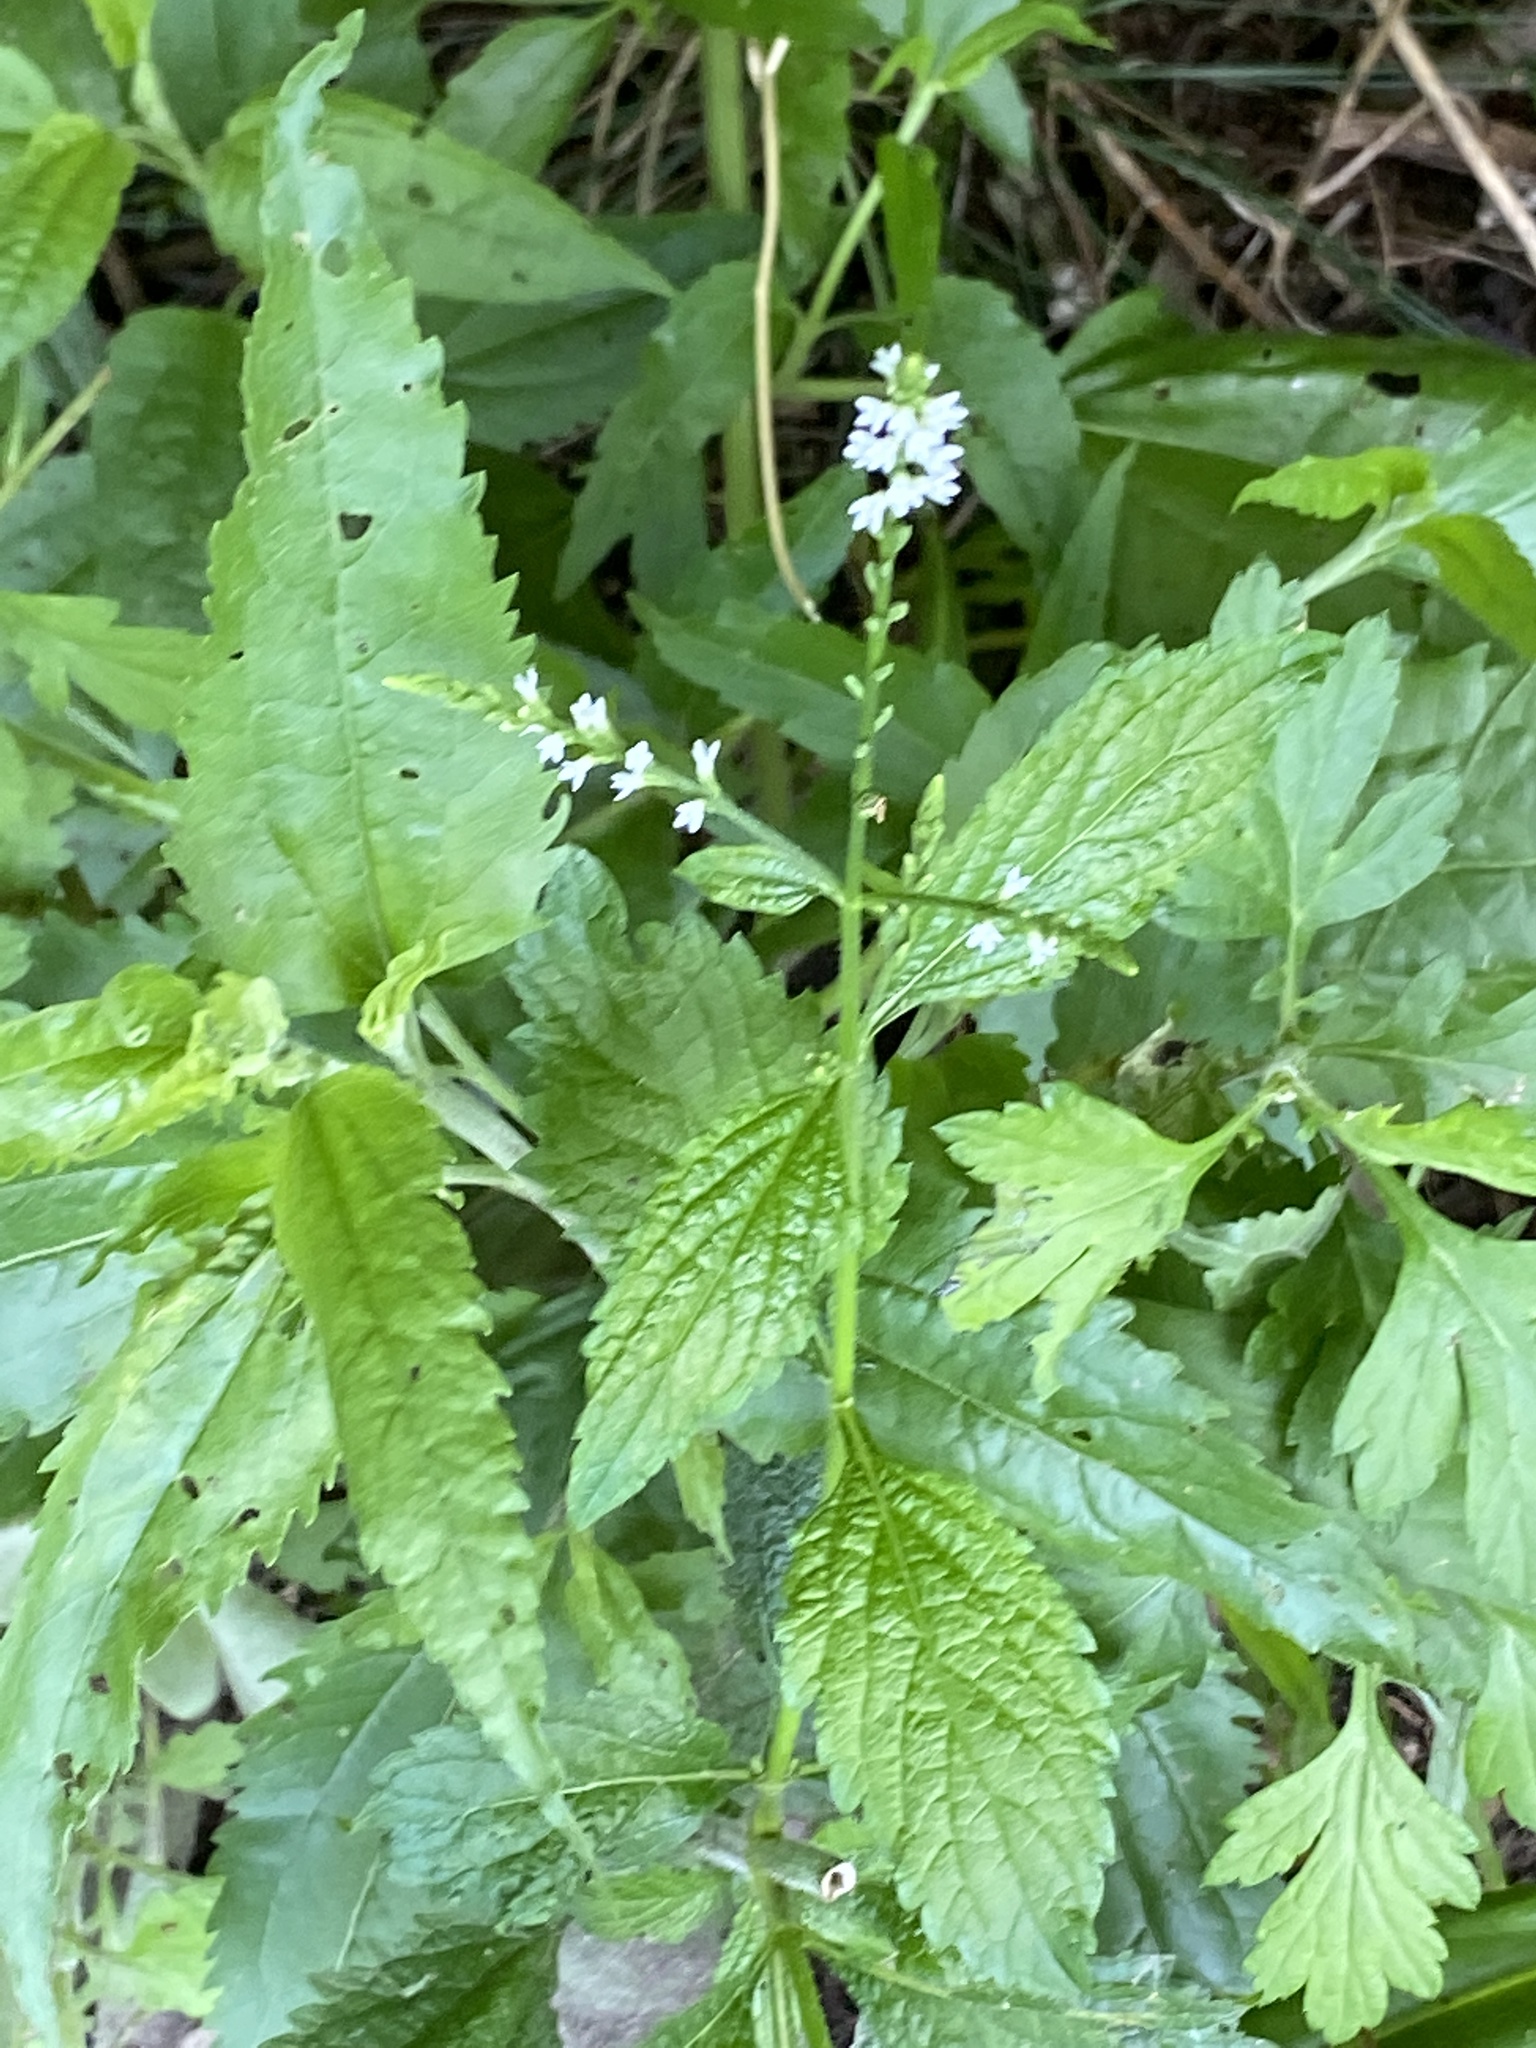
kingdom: Plantae
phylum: Tracheophyta
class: Magnoliopsida
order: Lamiales
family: Verbenaceae
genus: Verbena
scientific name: Verbena urticifolia
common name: Nettle-leaved vervain
